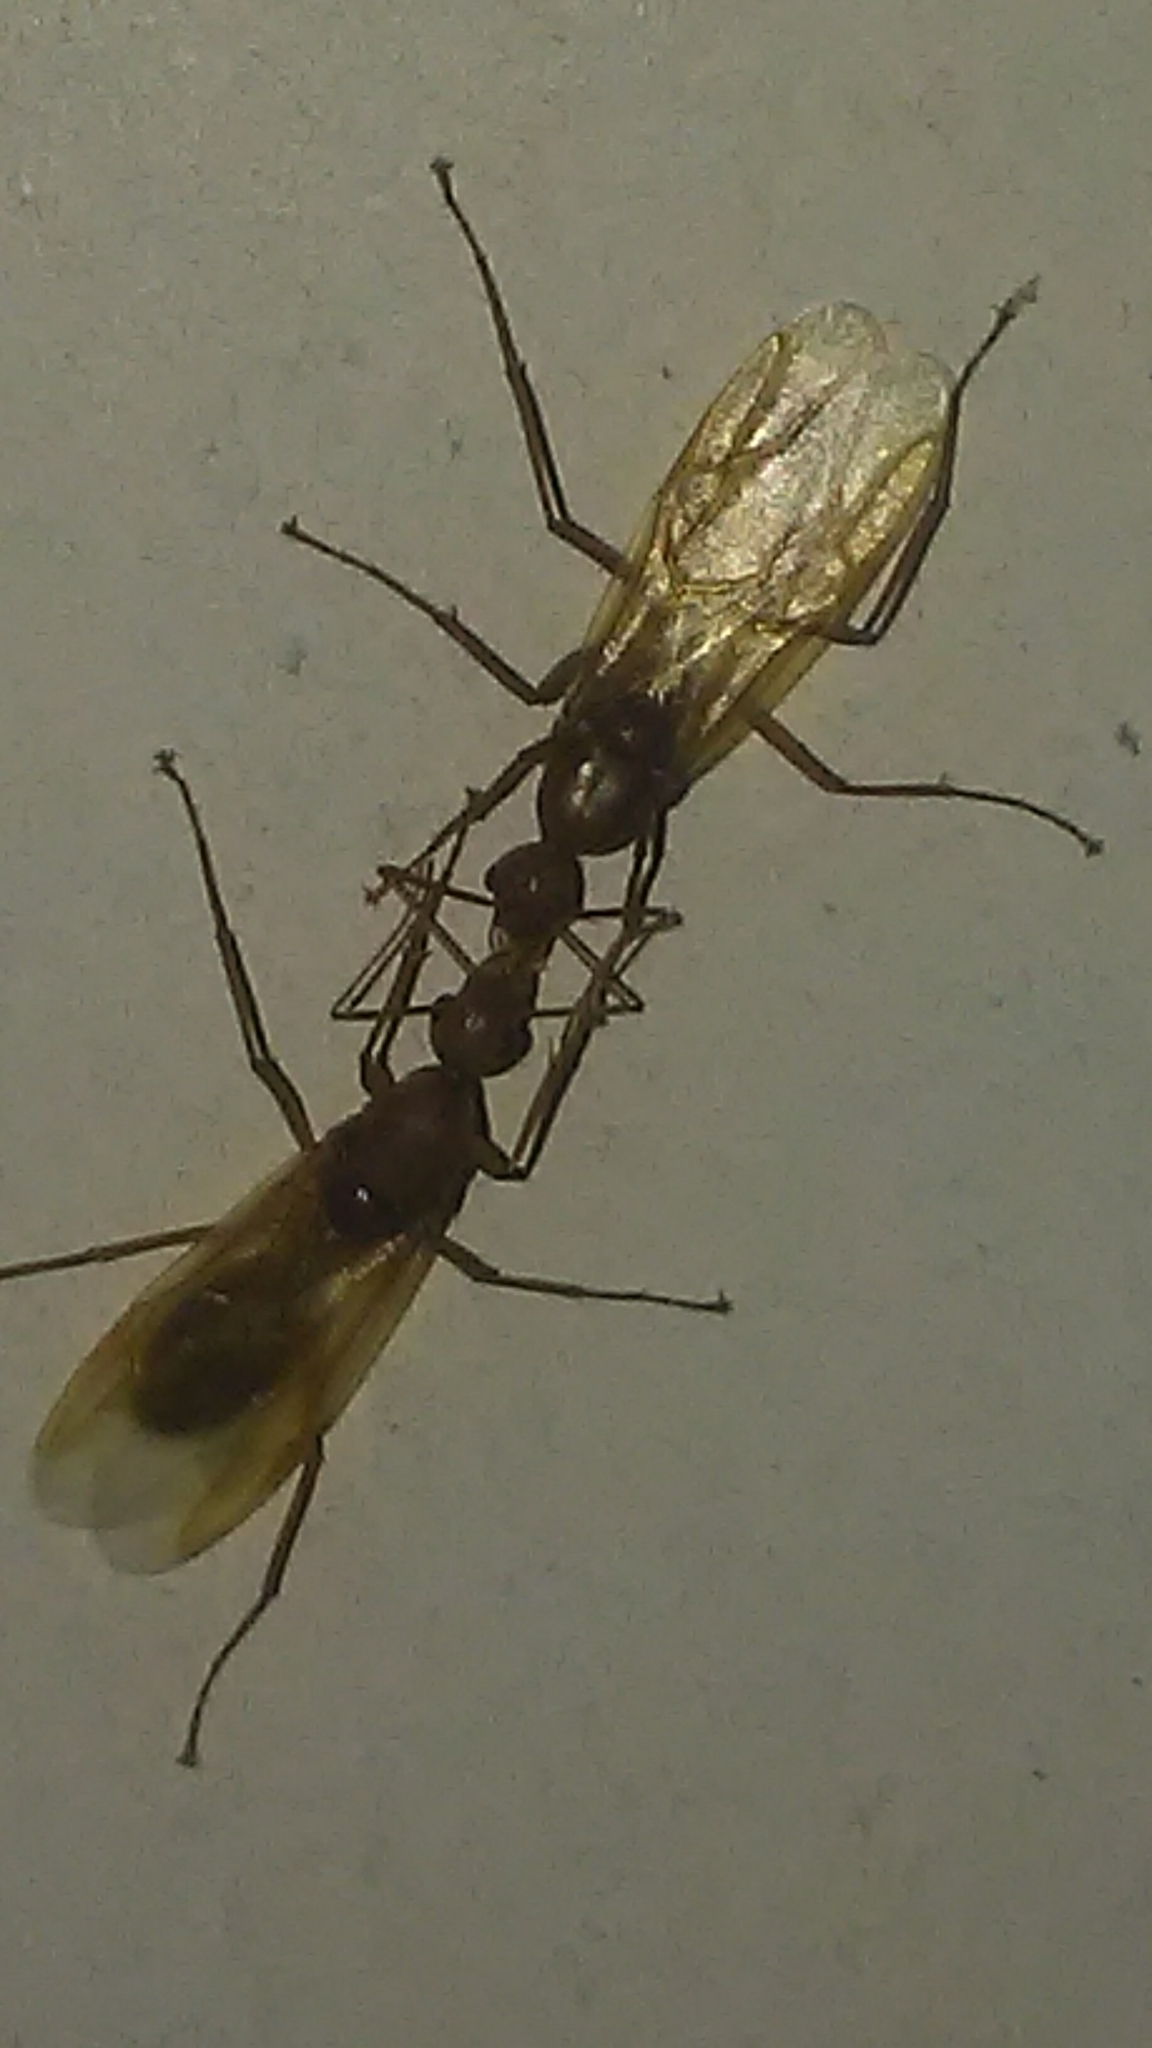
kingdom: Animalia
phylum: Arthropoda
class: Insecta
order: Hymenoptera
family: Formicidae
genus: Camponotus
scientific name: Camponotus castaneus
